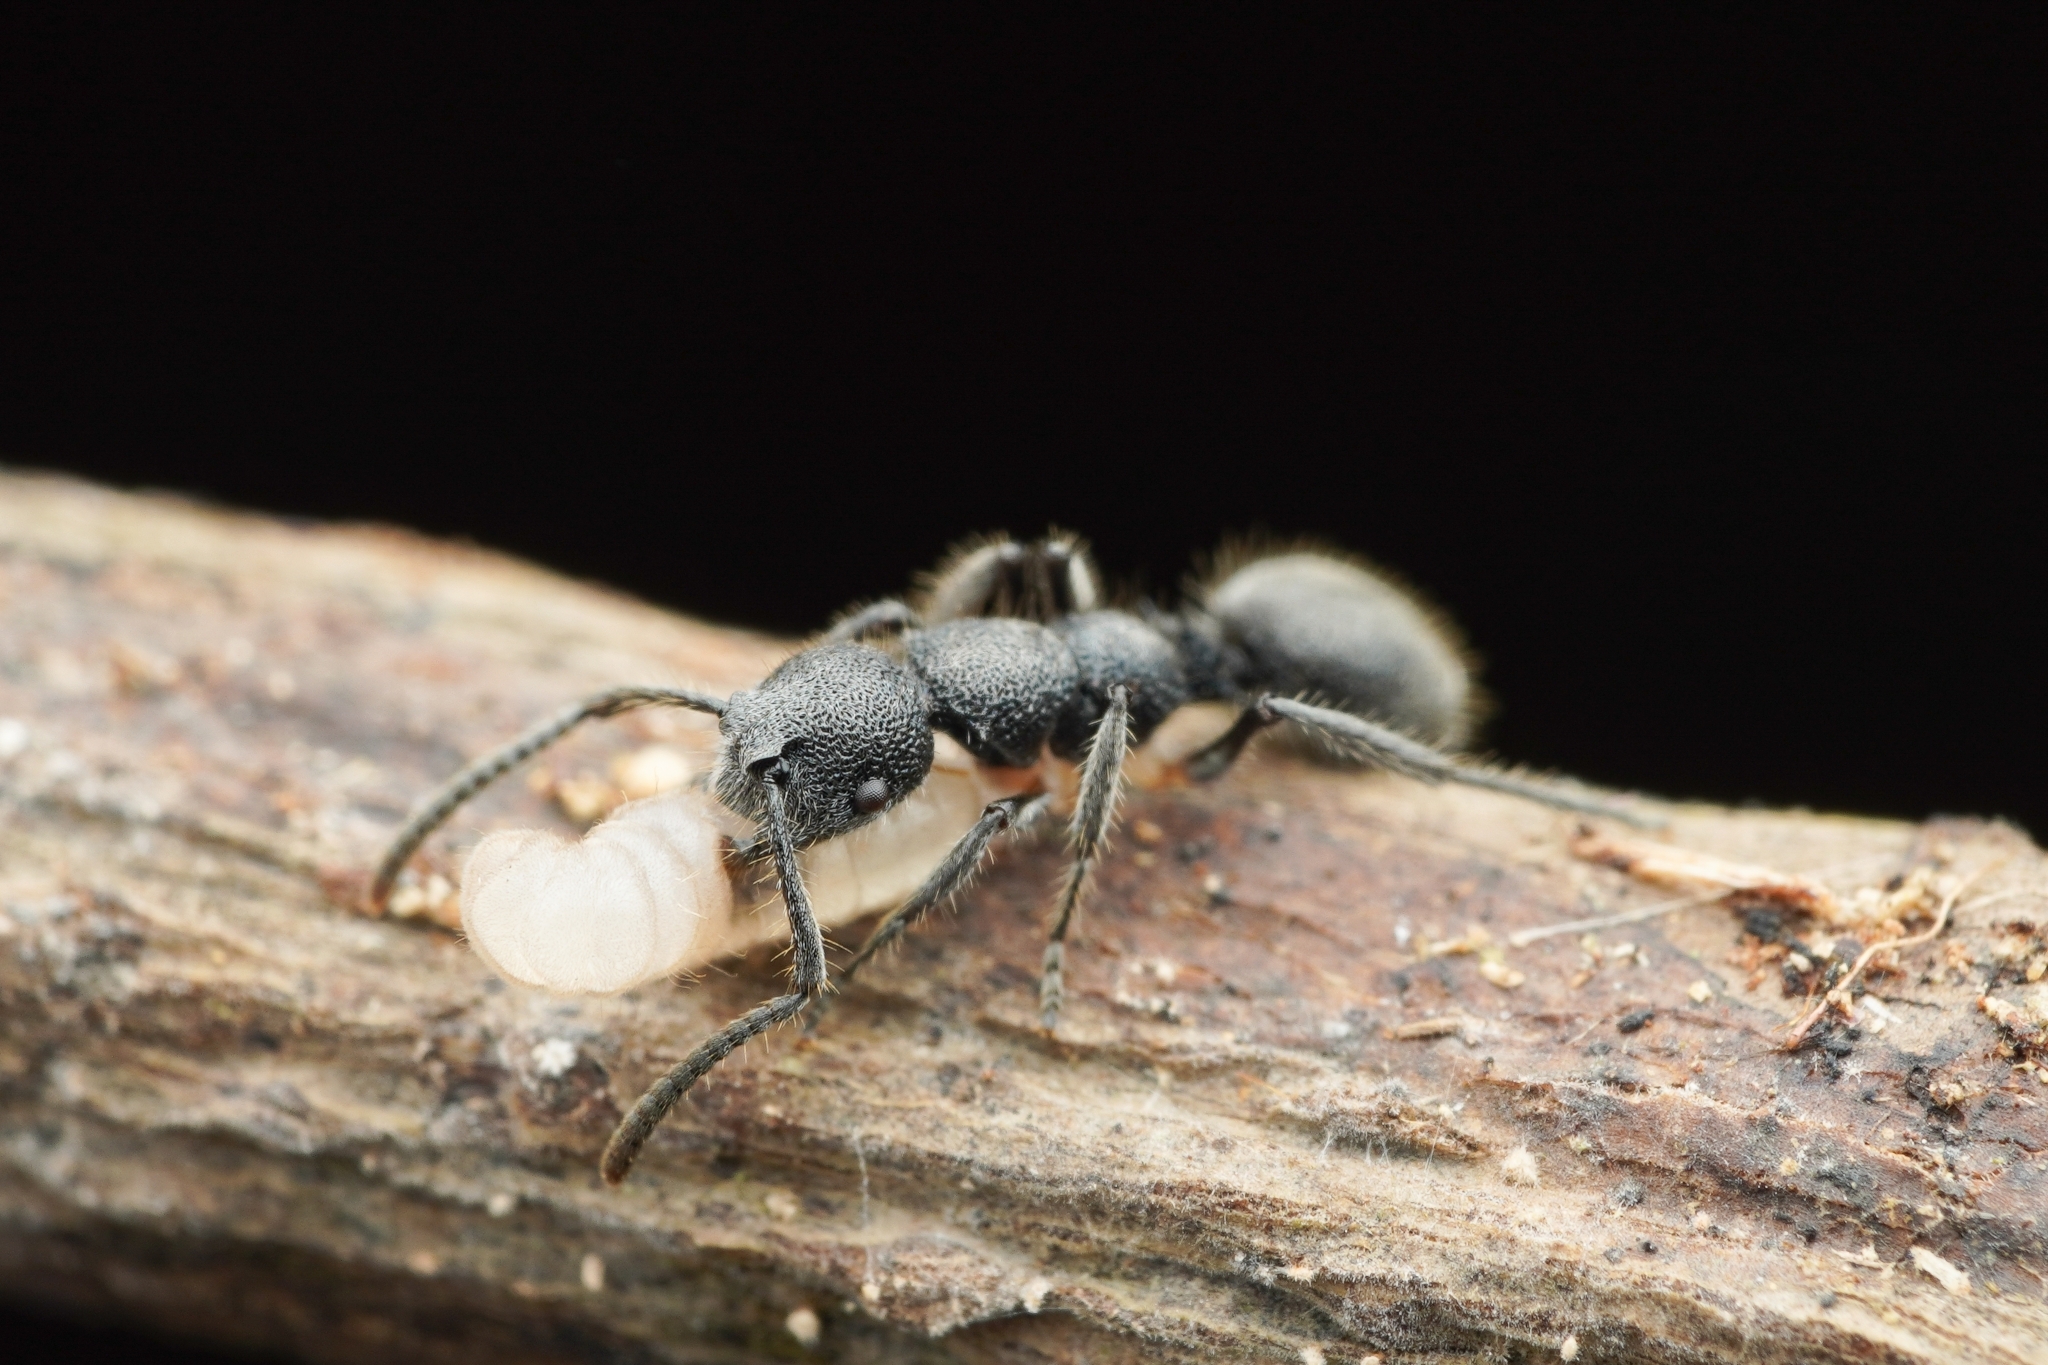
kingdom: Animalia
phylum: Arthropoda
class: Insecta
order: Hymenoptera
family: Formicidae
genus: Echinopla
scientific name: Echinopla angustata
